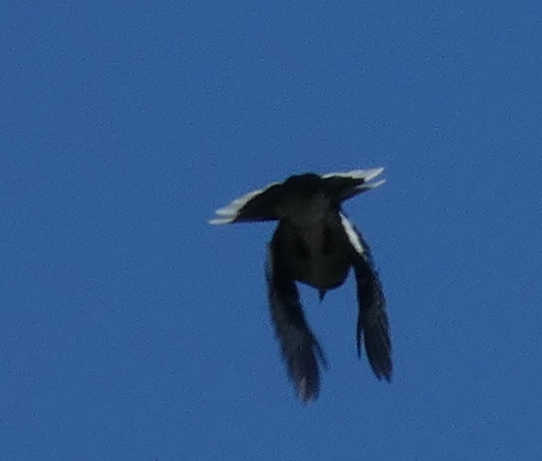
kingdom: Animalia
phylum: Chordata
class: Aves
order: Passeriformes
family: Corvidae
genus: Cyanocitta
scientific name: Cyanocitta cristata
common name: Blue jay
